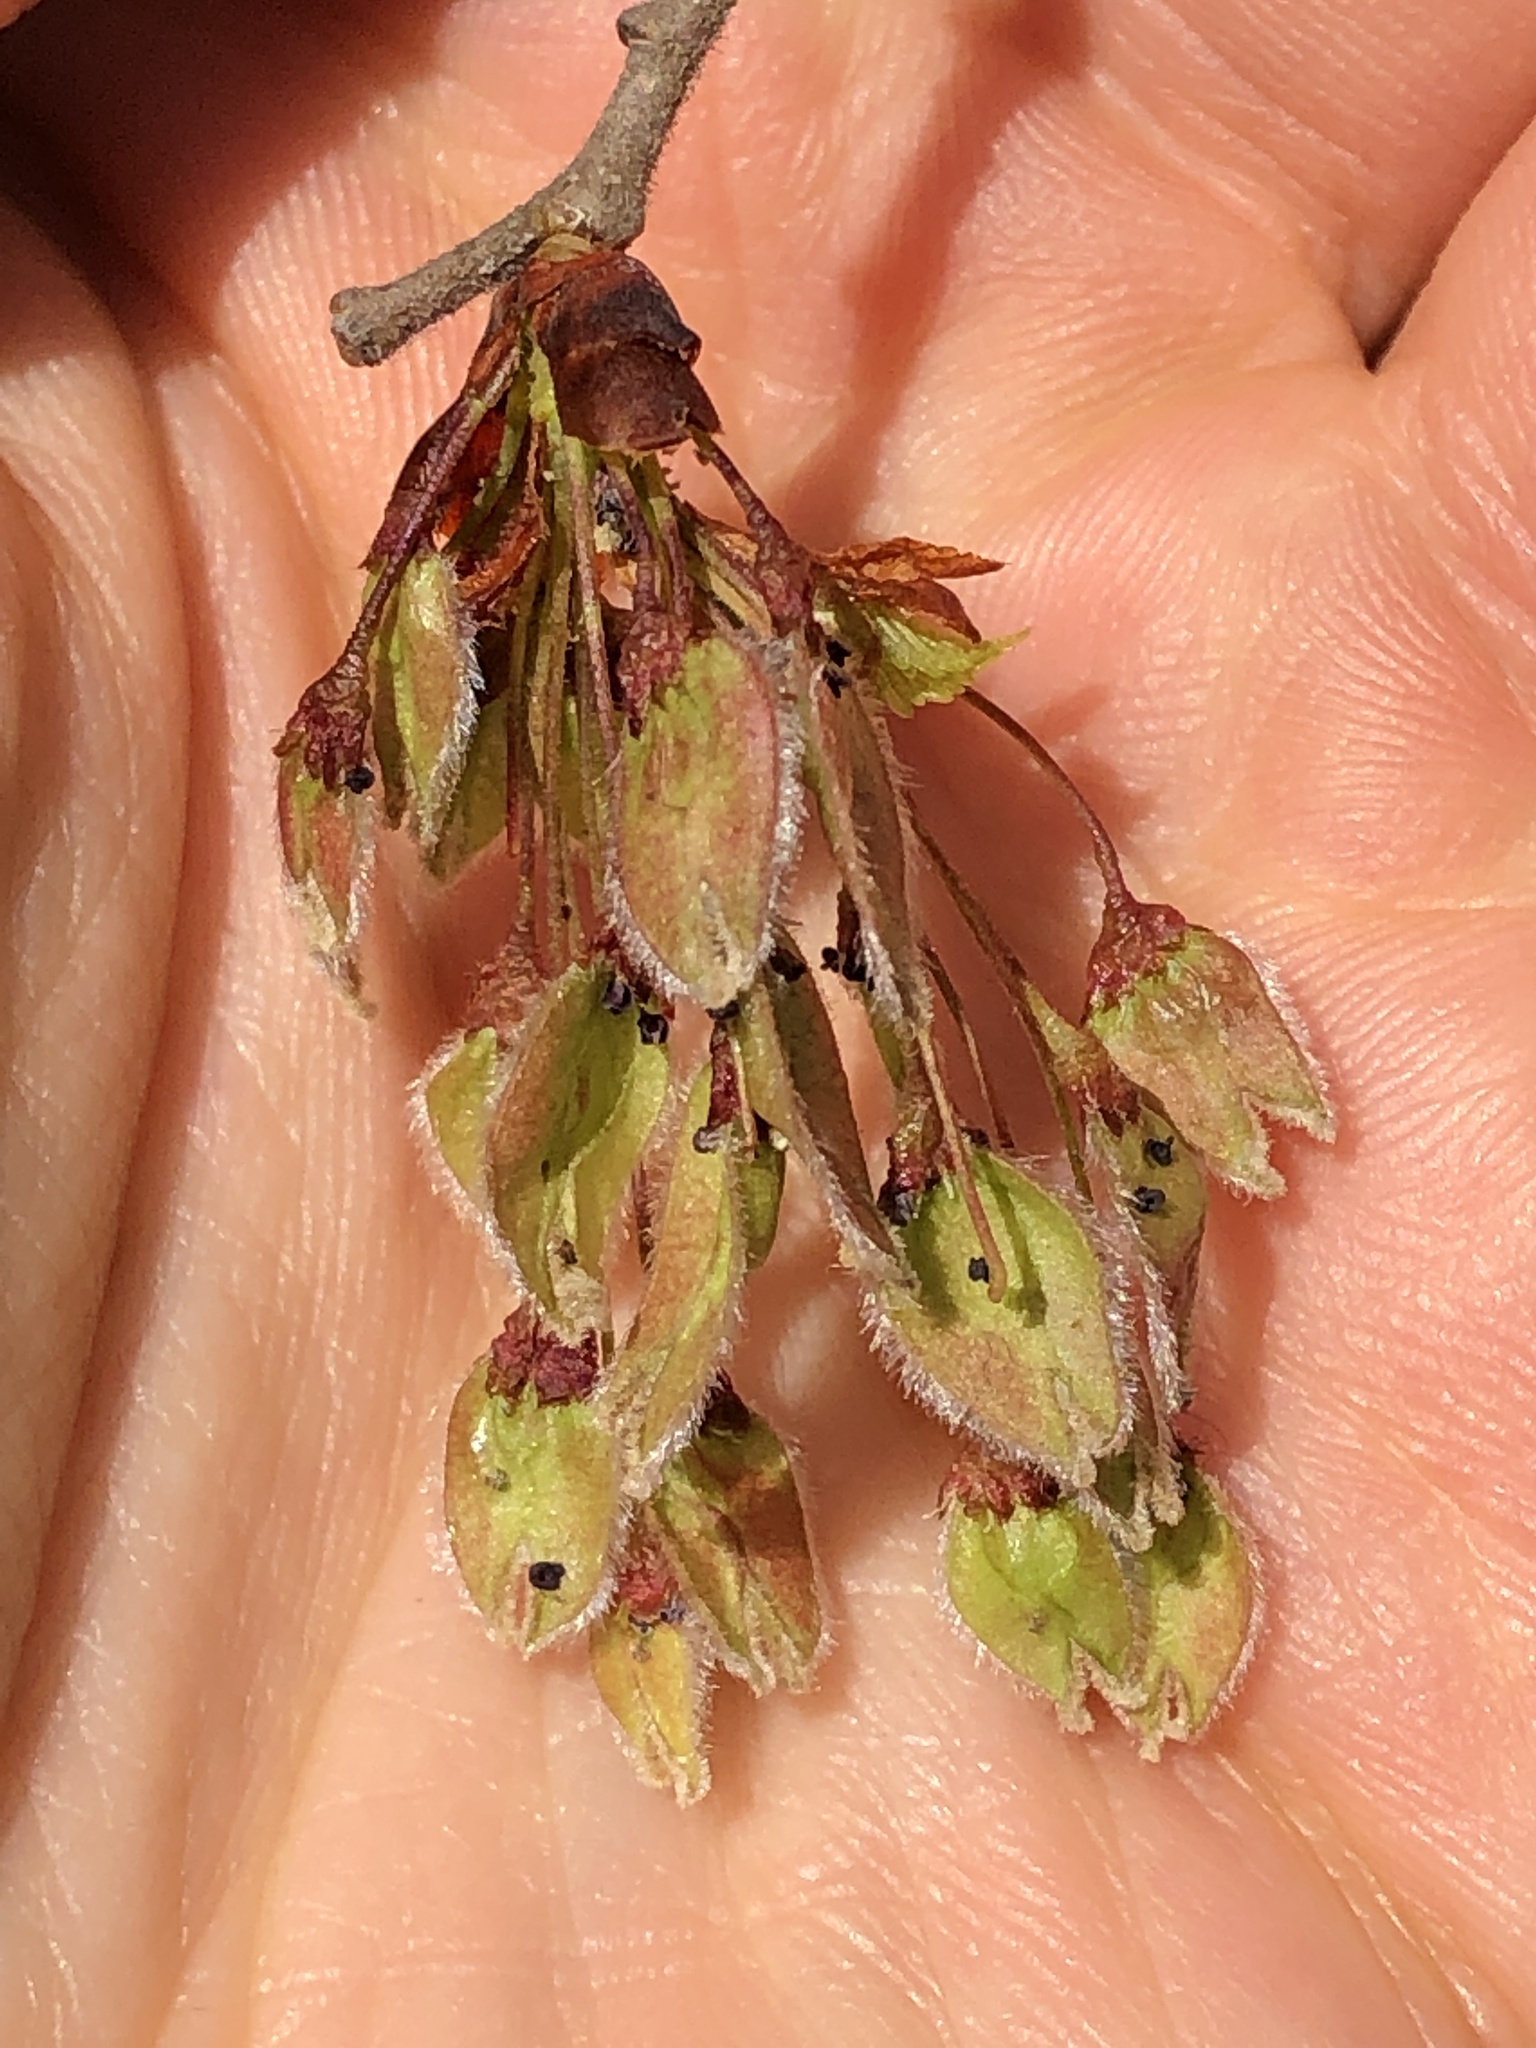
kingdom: Plantae
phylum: Tracheophyta
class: Magnoliopsida
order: Rosales
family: Ulmaceae
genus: Ulmus
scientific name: Ulmus laevis
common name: European white-elm
